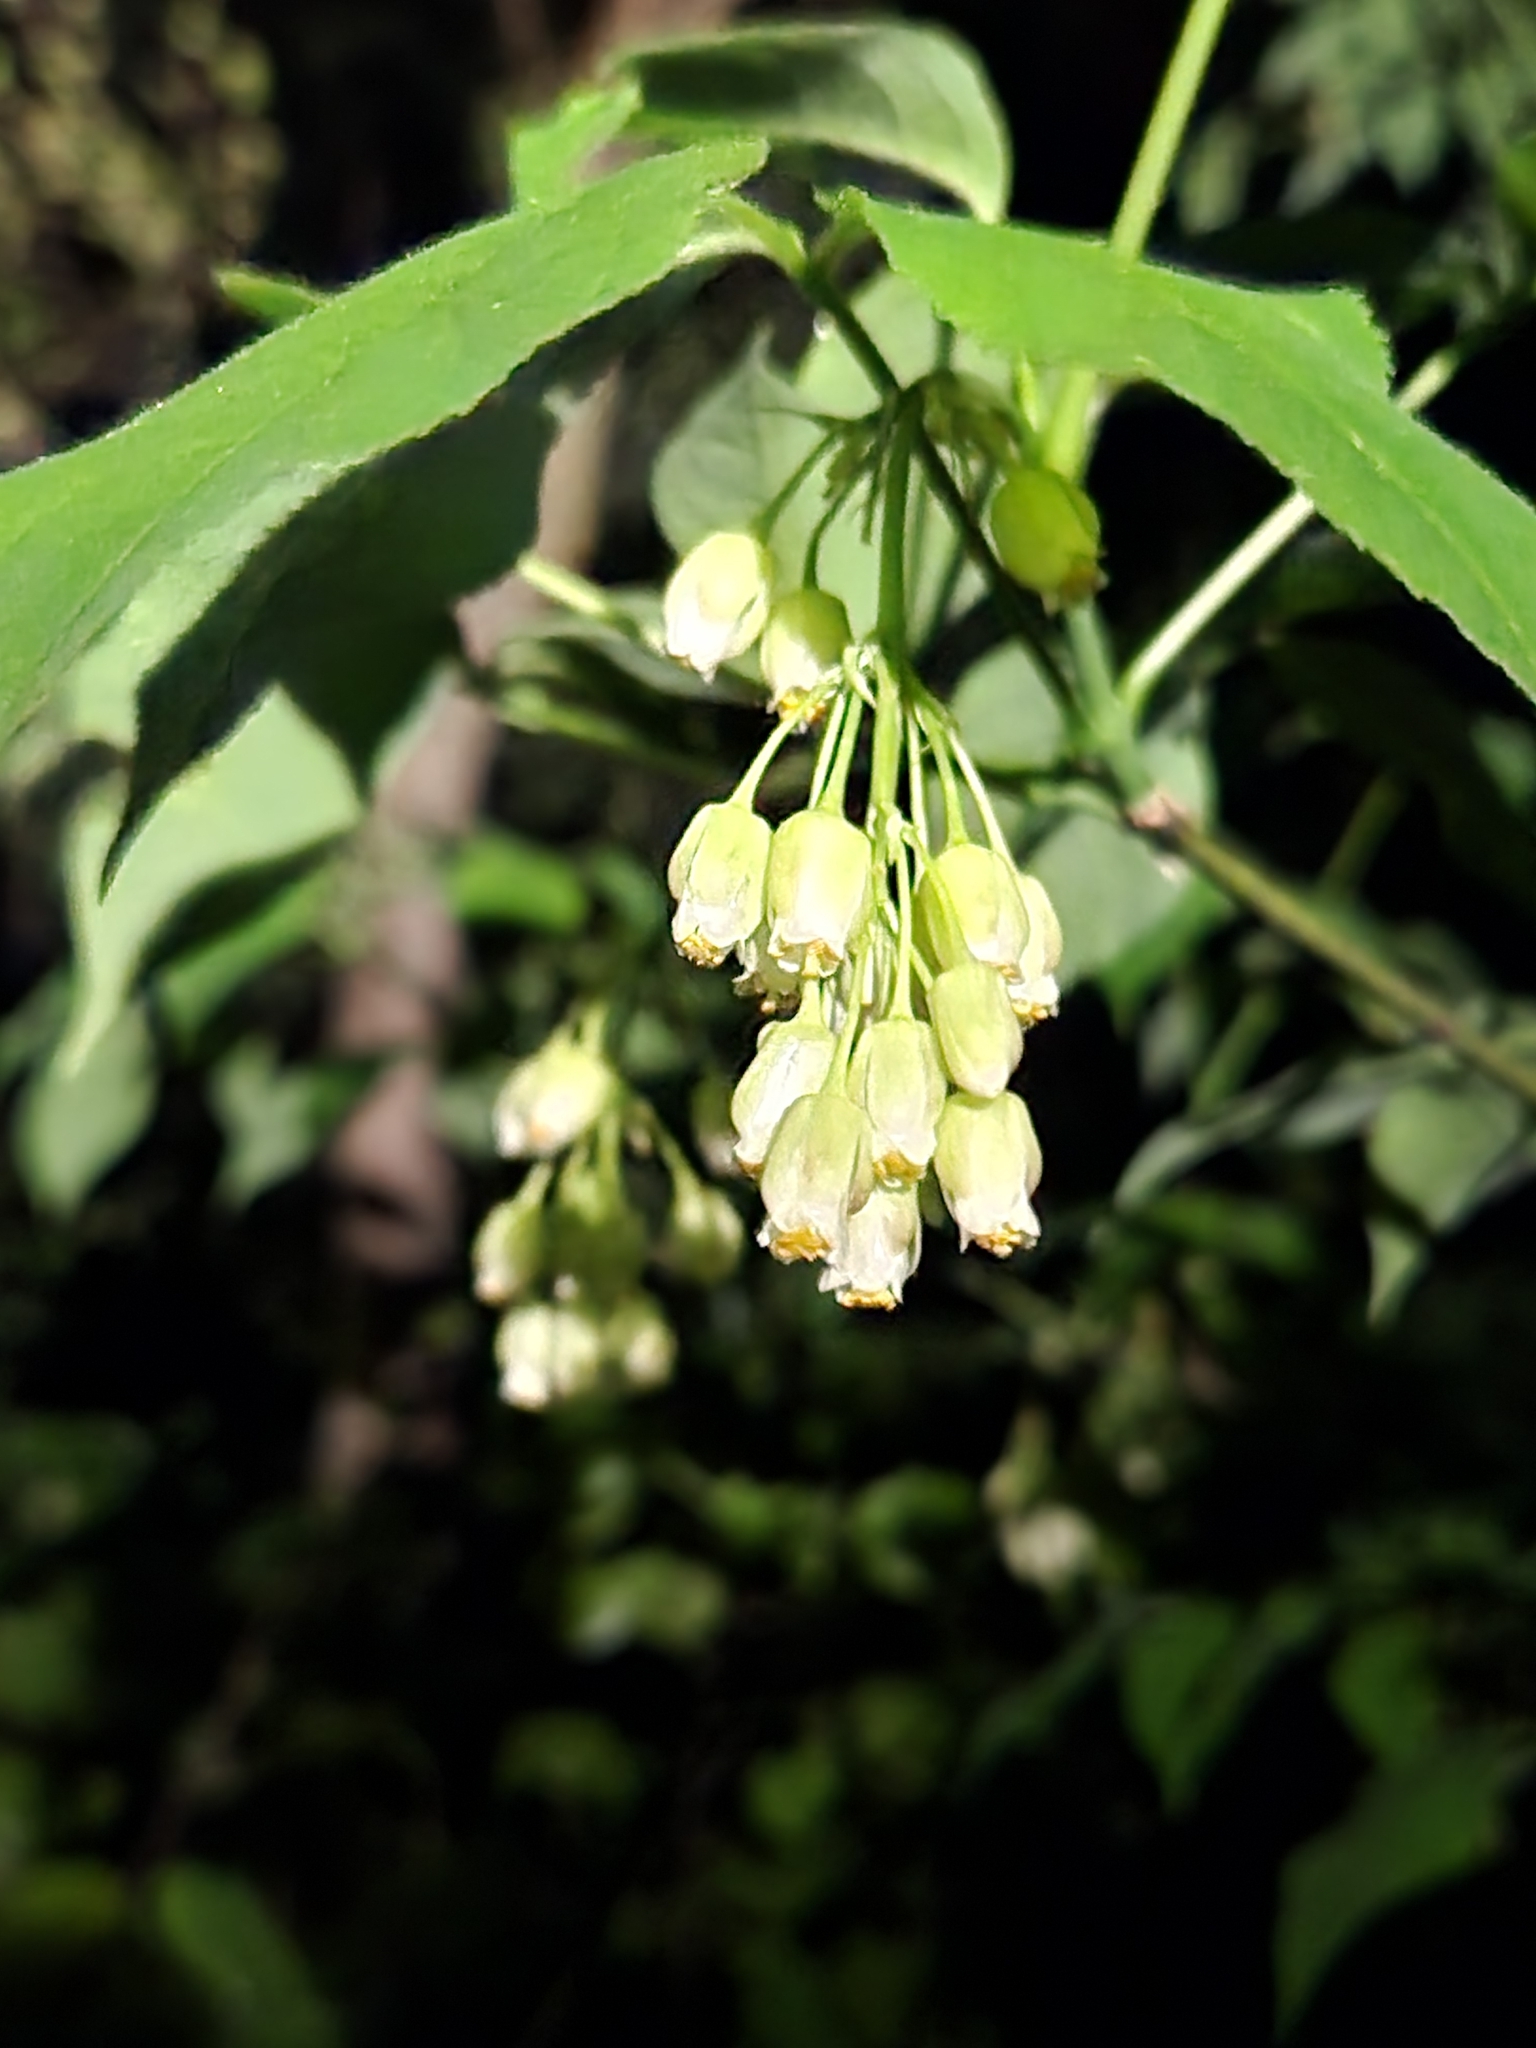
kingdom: Plantae
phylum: Tracheophyta
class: Magnoliopsida
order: Crossosomatales
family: Staphyleaceae
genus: Staphylea
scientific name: Staphylea trifolia
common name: American bladdernut
